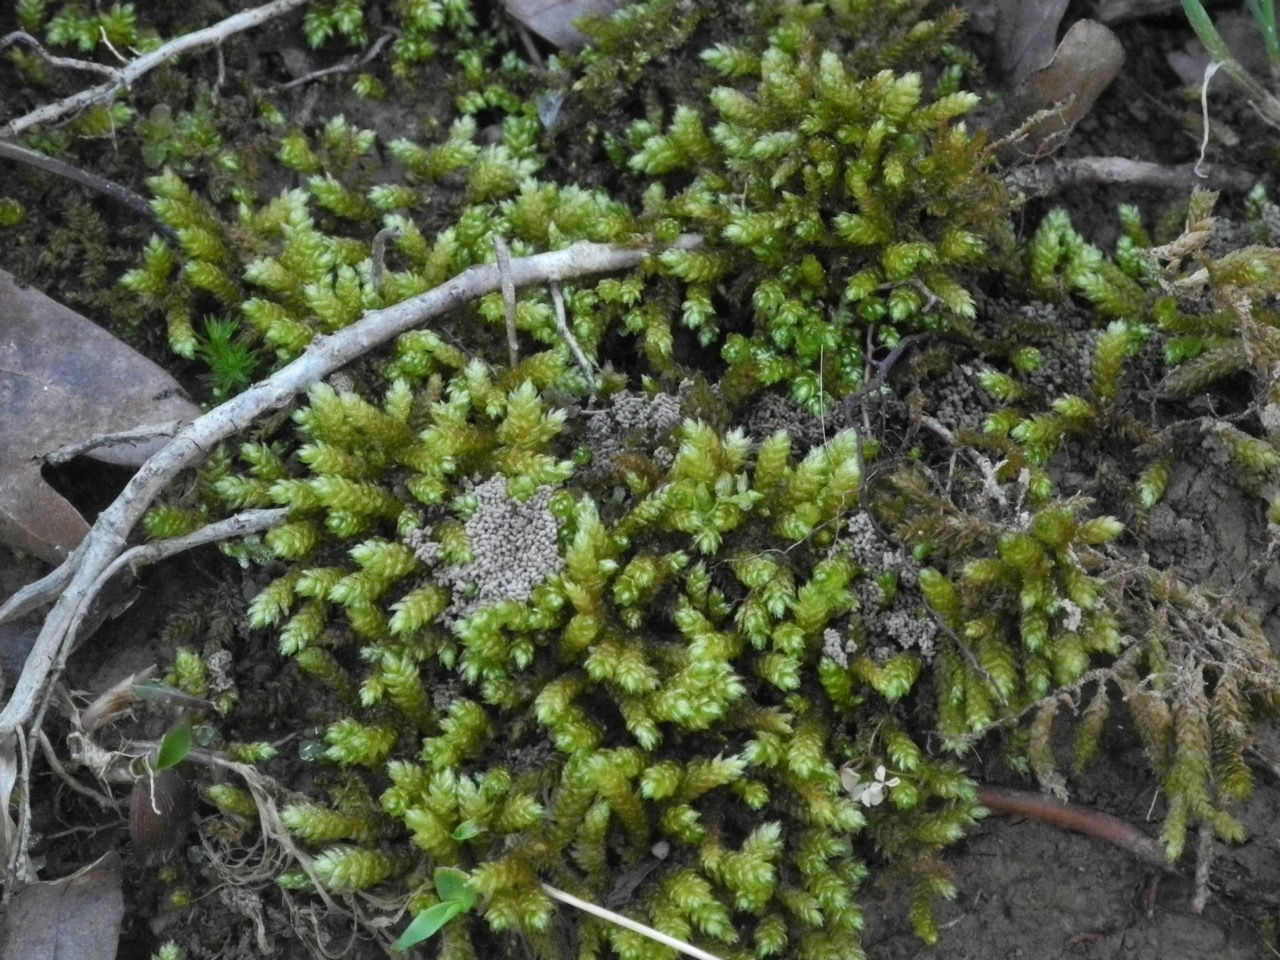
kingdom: Plantae
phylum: Bryophyta
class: Bryopsida
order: Hypnales
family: Brachytheciaceae
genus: Bryoandersonia
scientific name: Bryoandersonia illecebra
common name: Spoon-leaved moss
